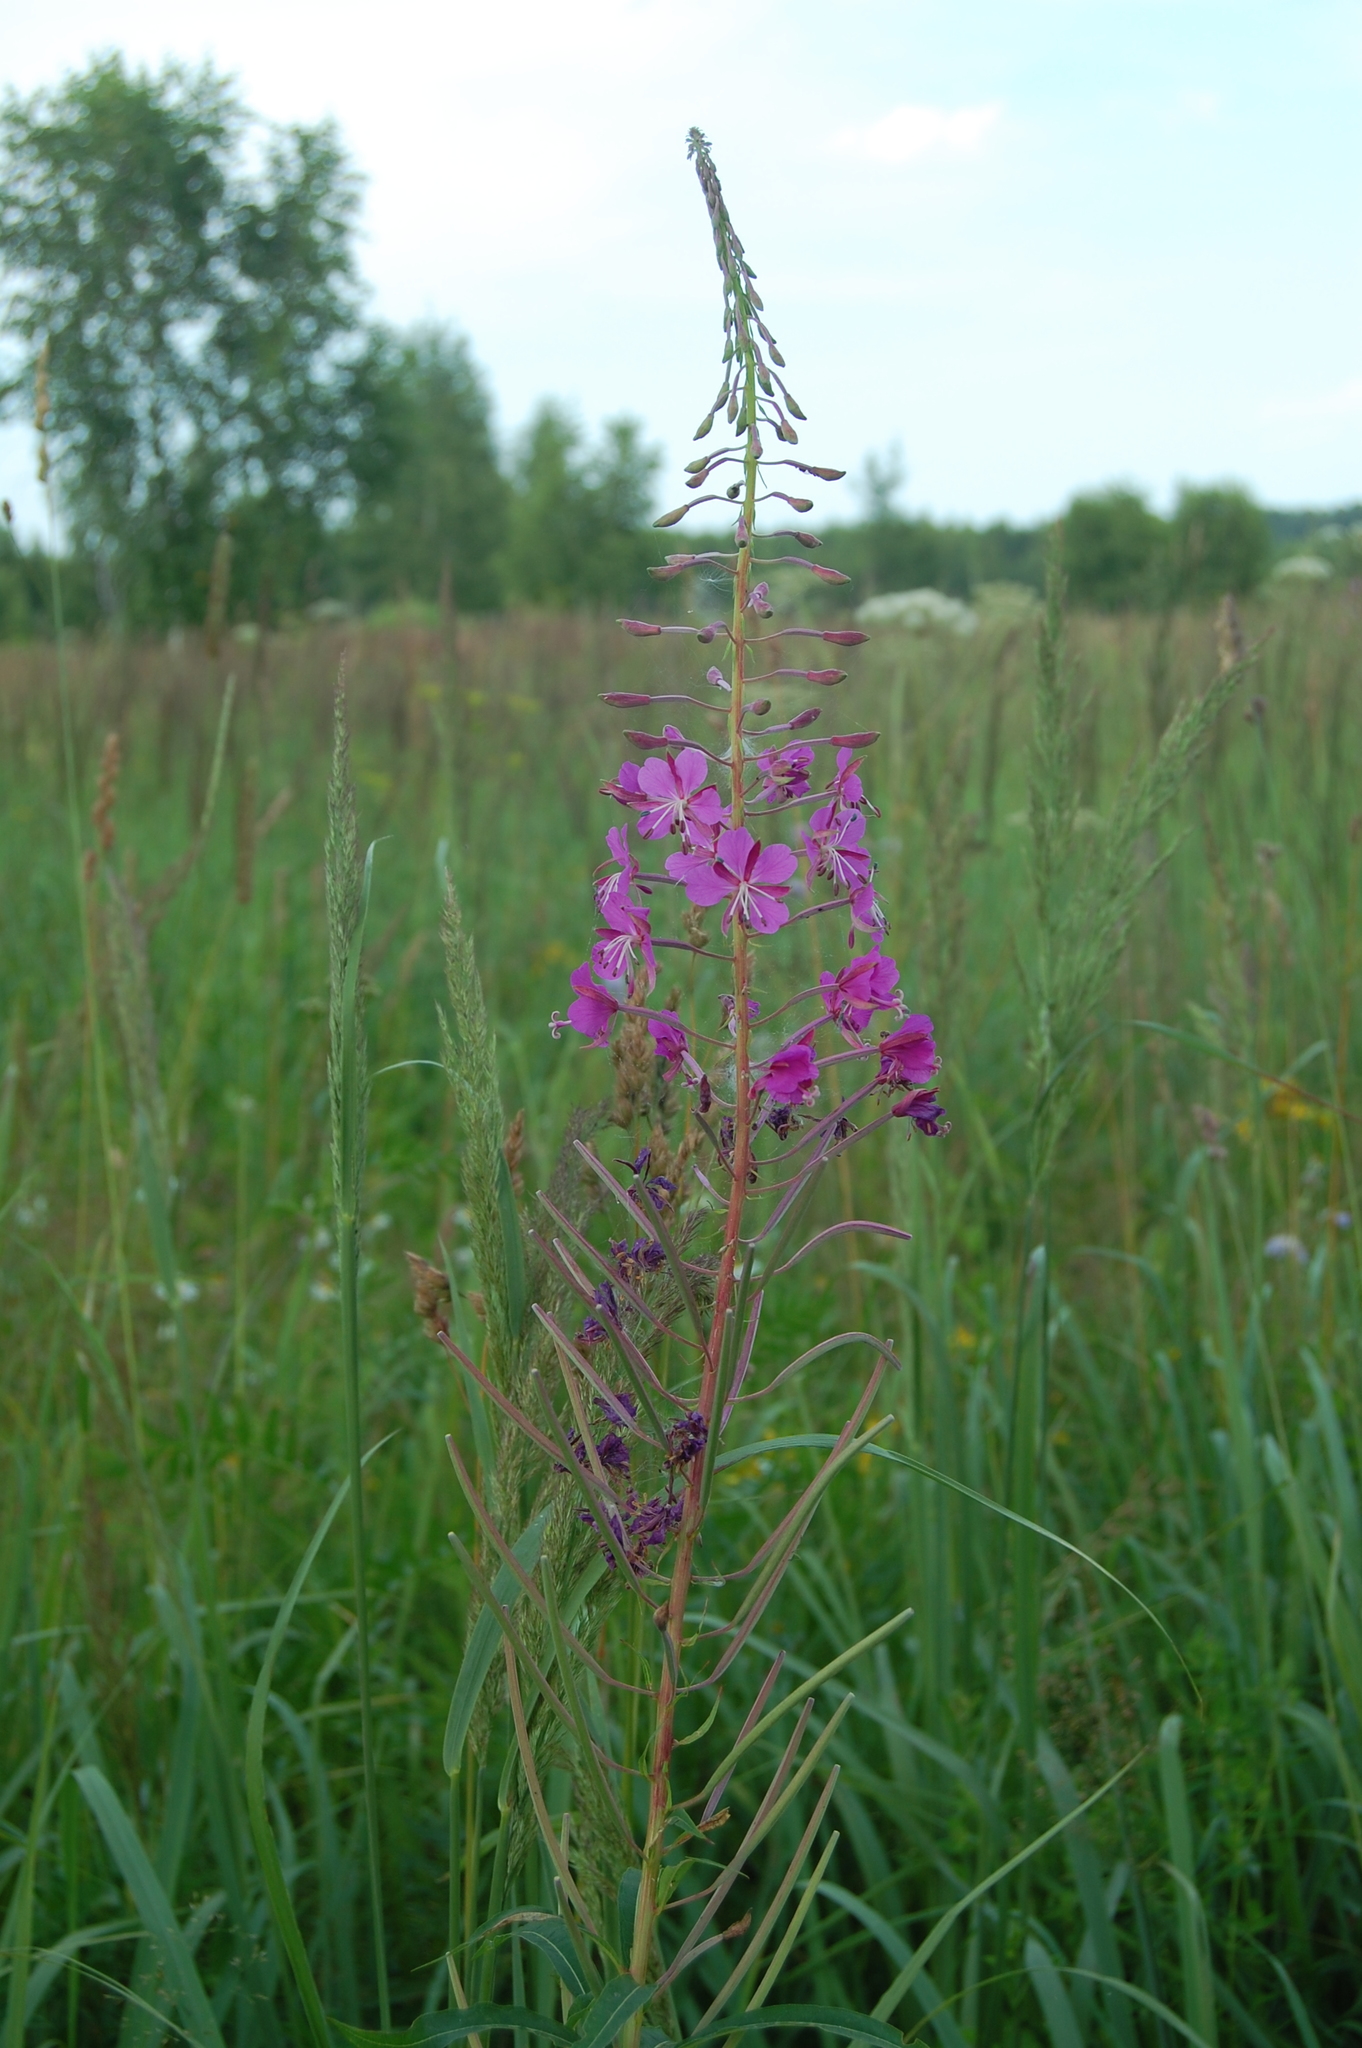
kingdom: Plantae
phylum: Tracheophyta
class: Magnoliopsida
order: Myrtales
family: Onagraceae
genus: Chamaenerion
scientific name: Chamaenerion angustifolium
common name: Fireweed
